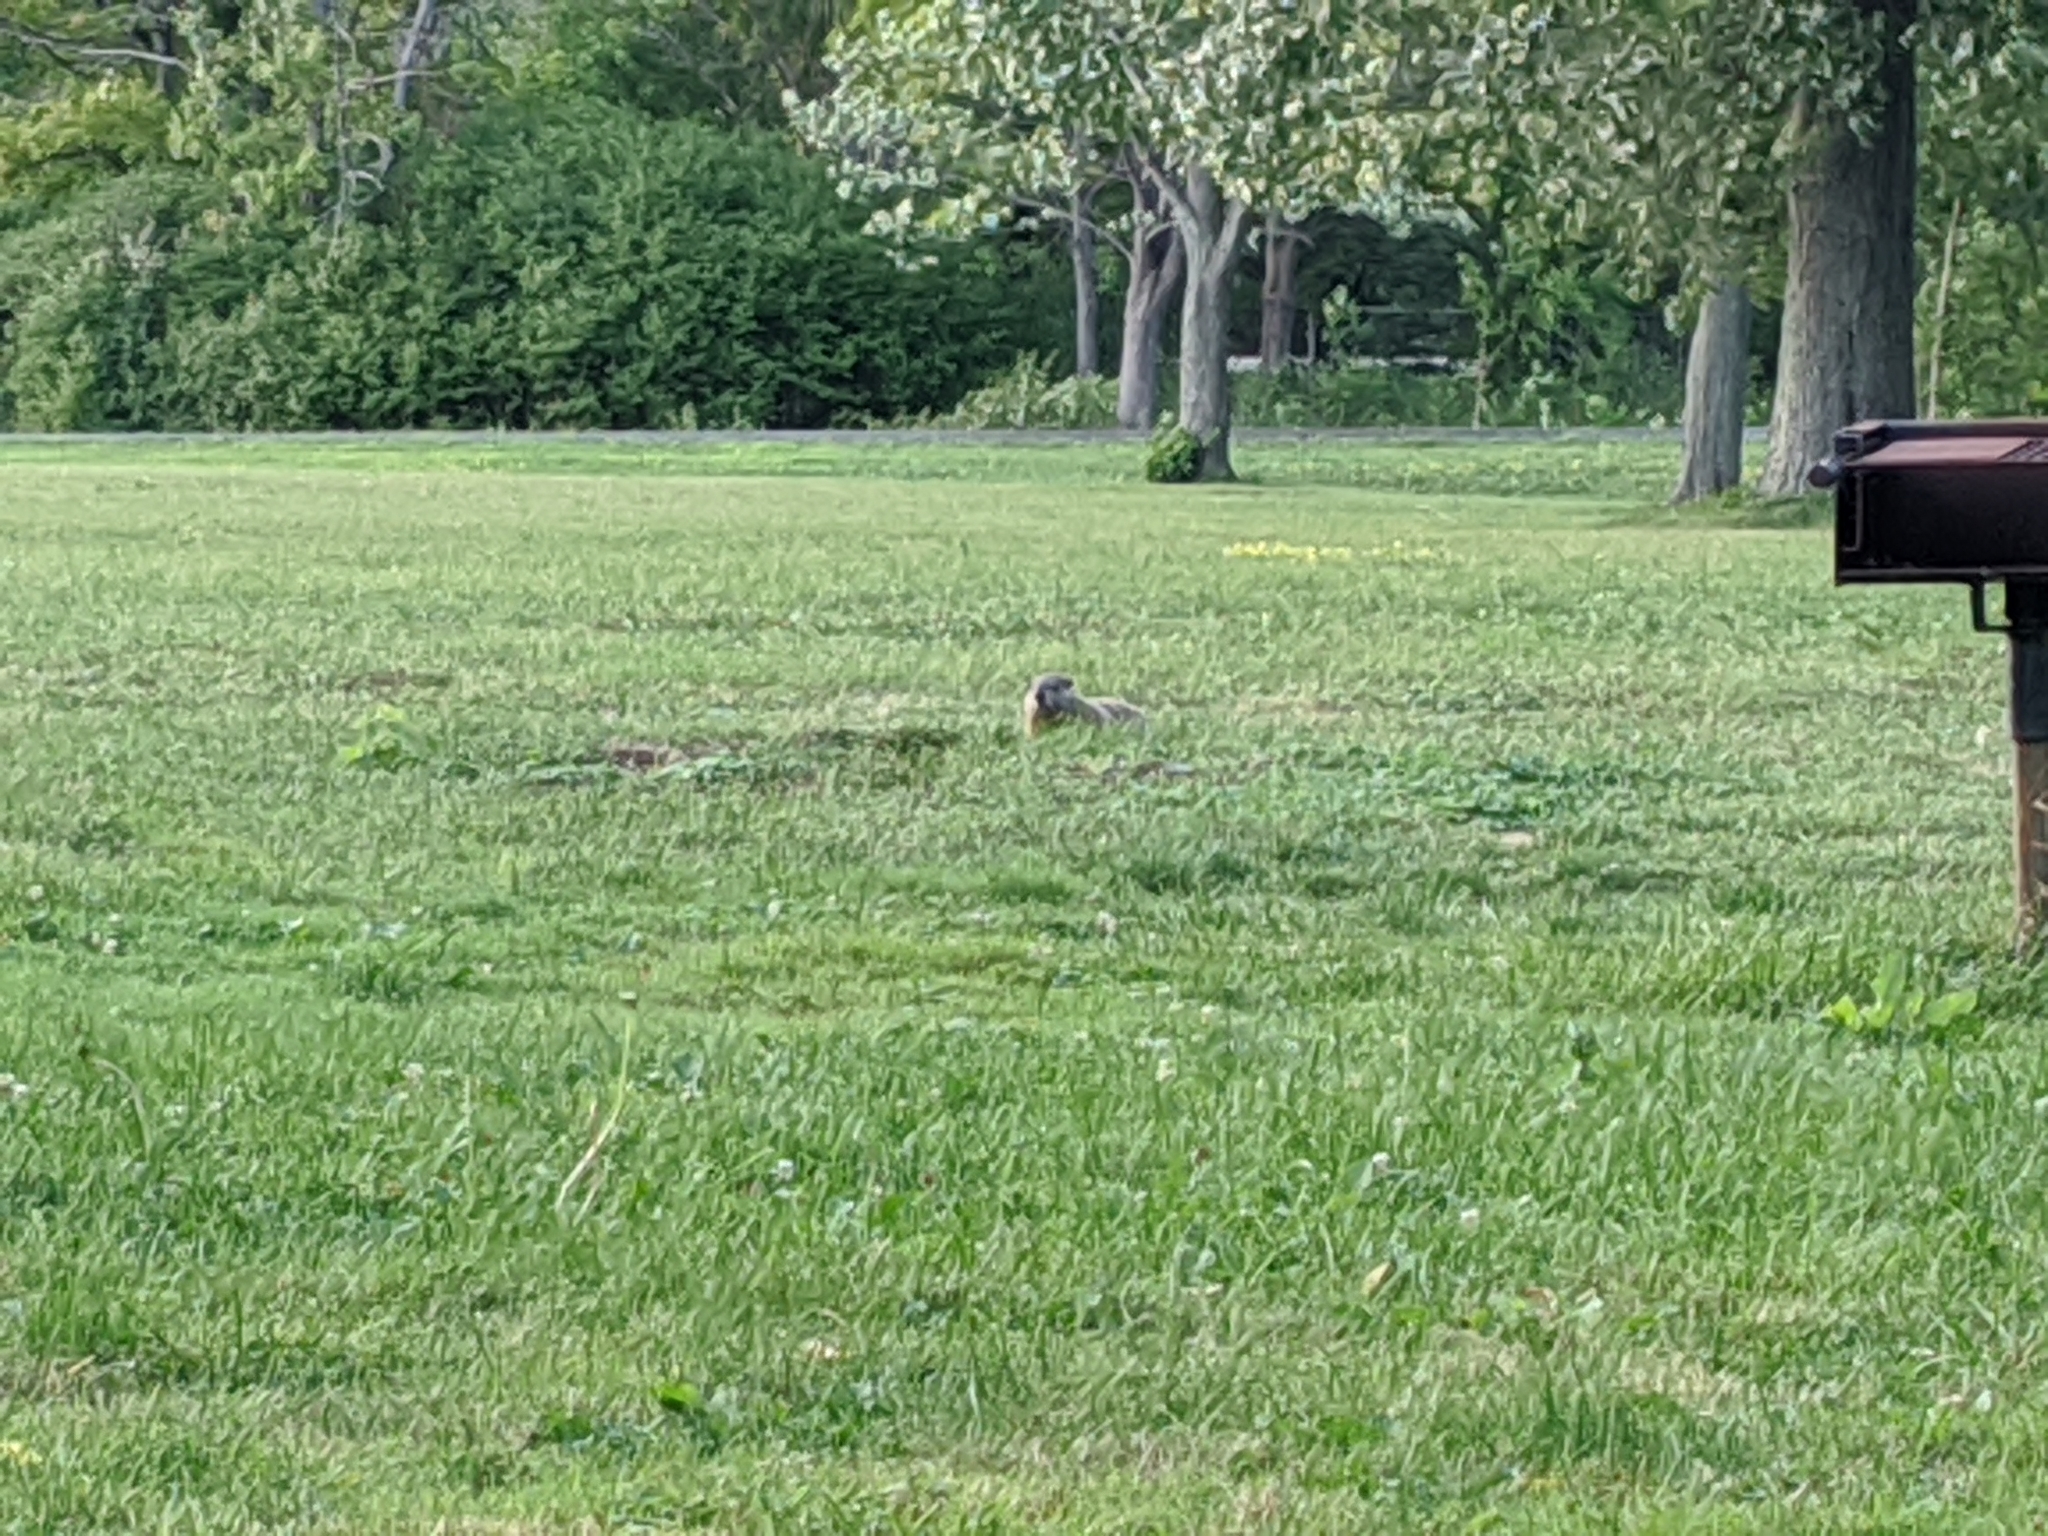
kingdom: Animalia
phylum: Chordata
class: Mammalia
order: Rodentia
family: Sciuridae
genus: Marmota
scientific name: Marmota monax
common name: Groundhog
